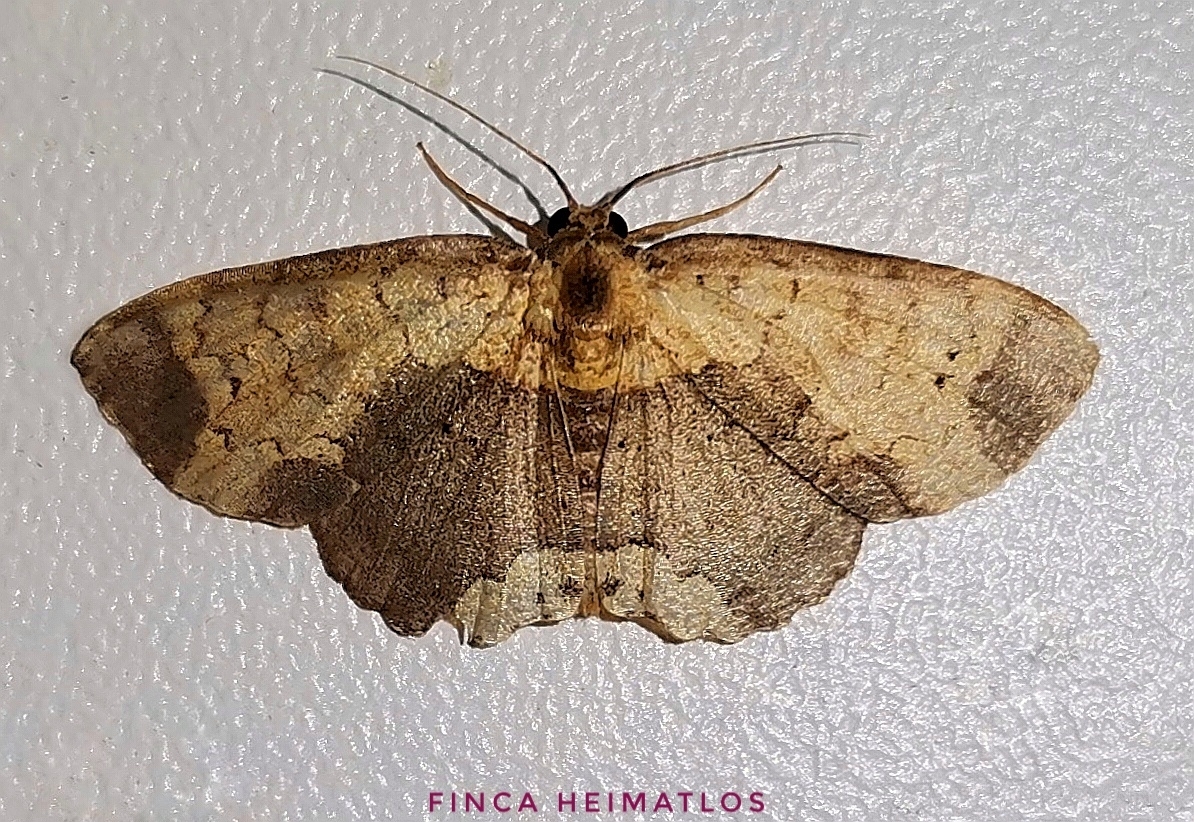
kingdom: Animalia
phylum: Arthropoda
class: Insecta
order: Lepidoptera
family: Geometridae
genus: Semaeopus
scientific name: Semaeopus caparonensis
